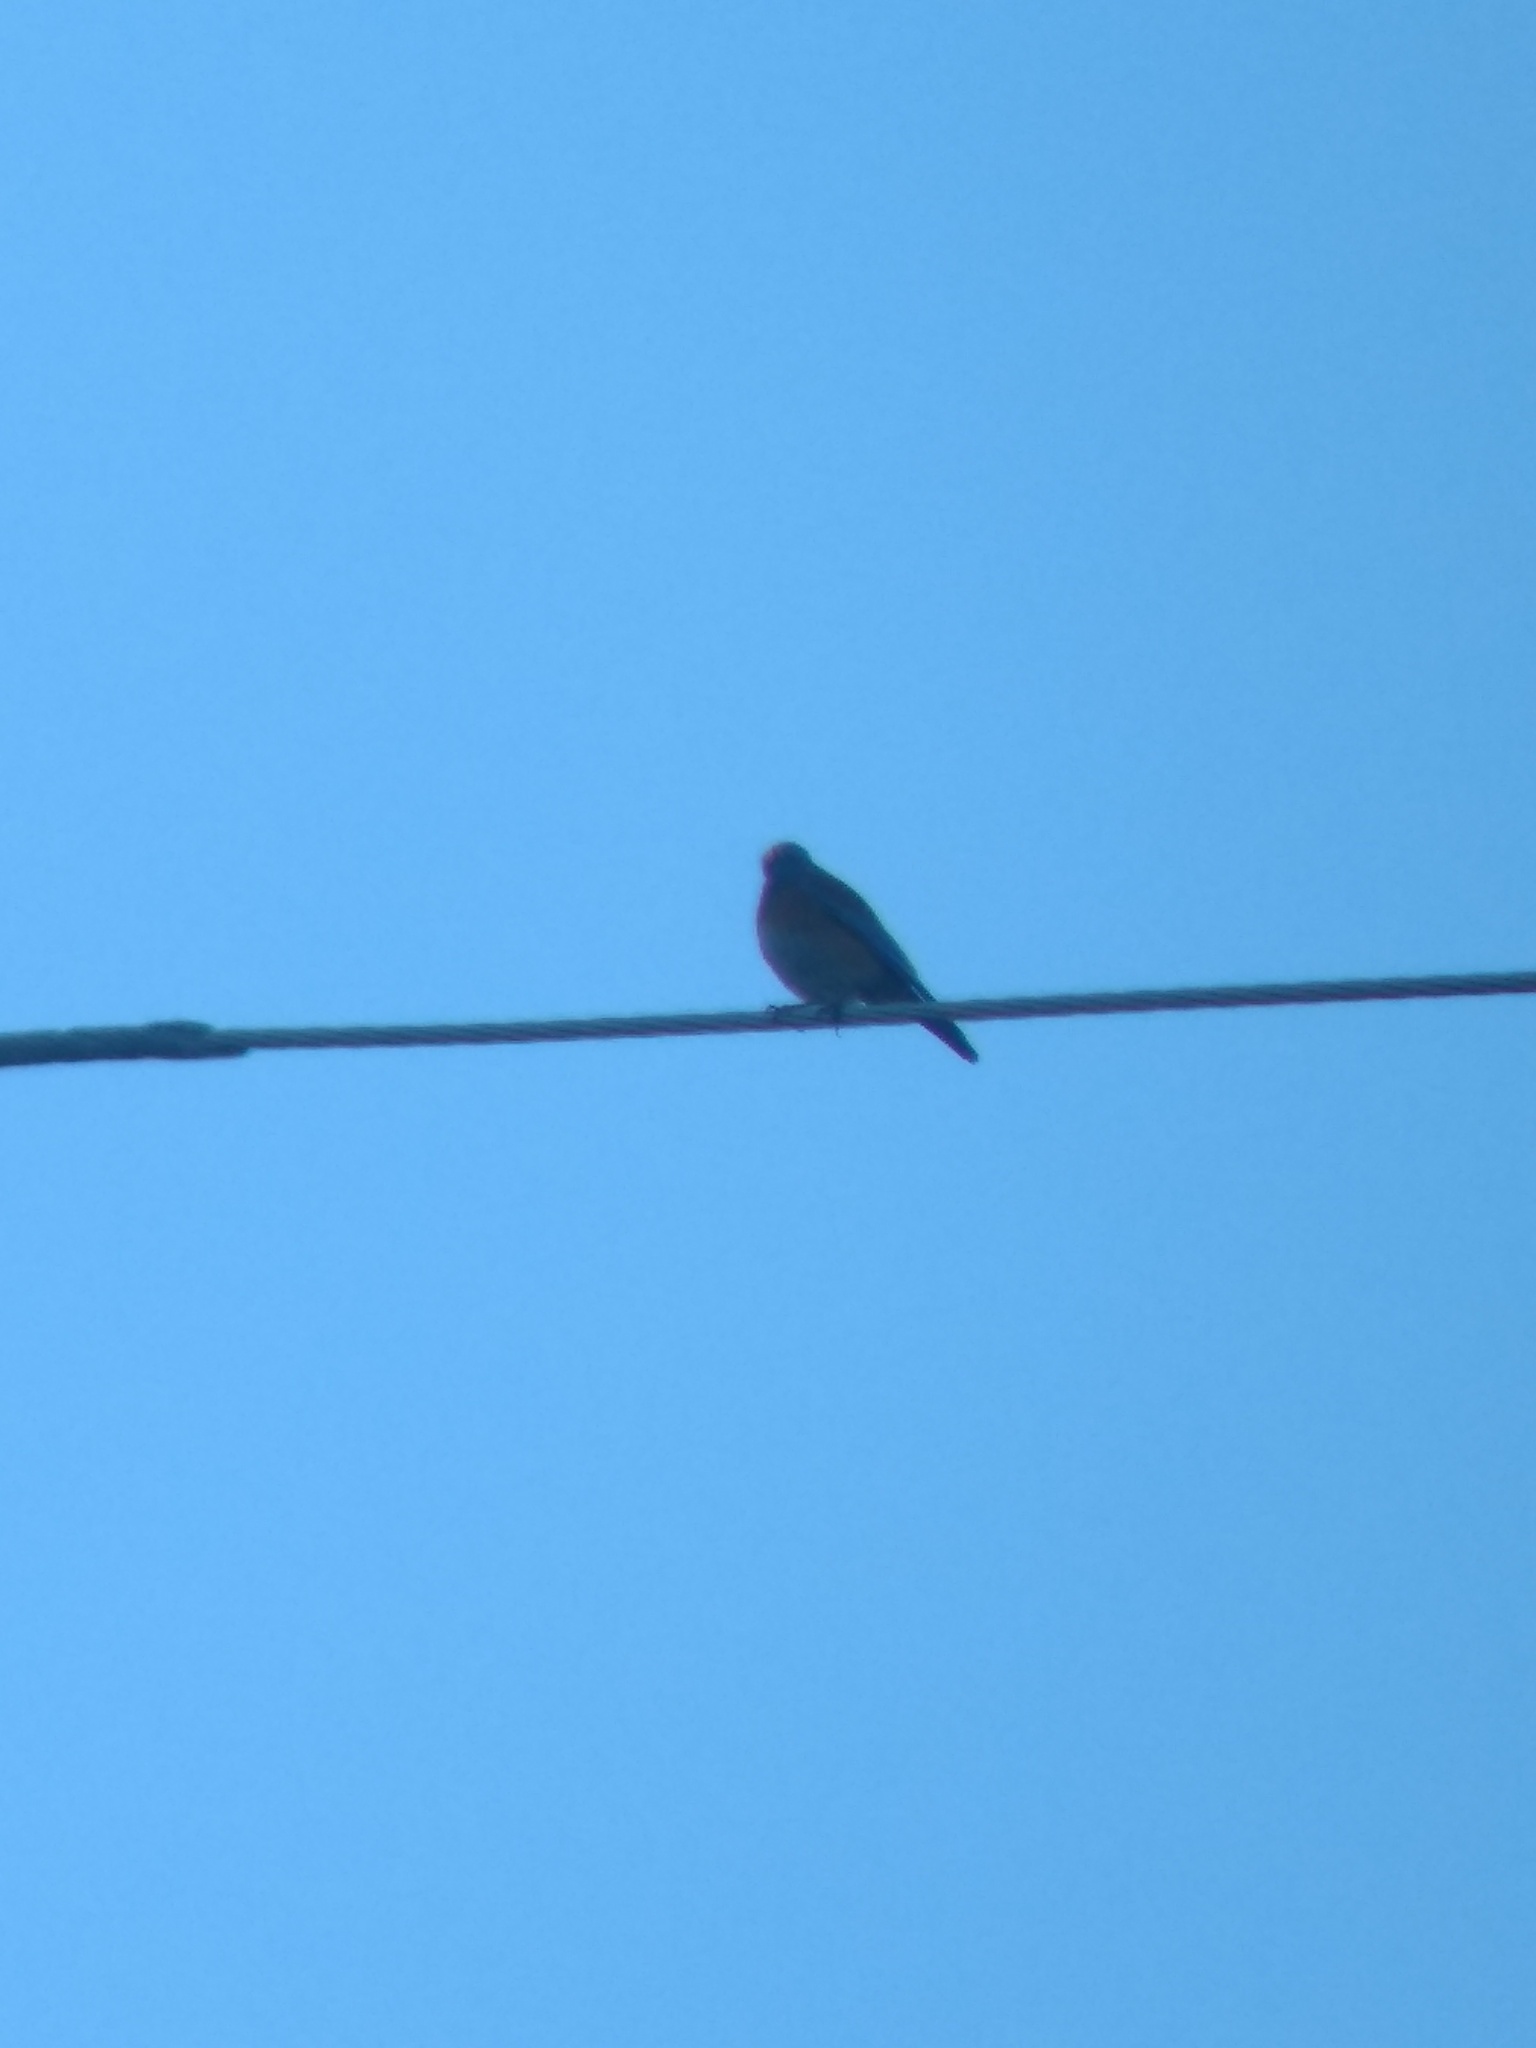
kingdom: Animalia
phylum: Chordata
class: Aves
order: Passeriformes
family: Turdidae
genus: Sialia
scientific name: Sialia mexicana
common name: Western bluebird
